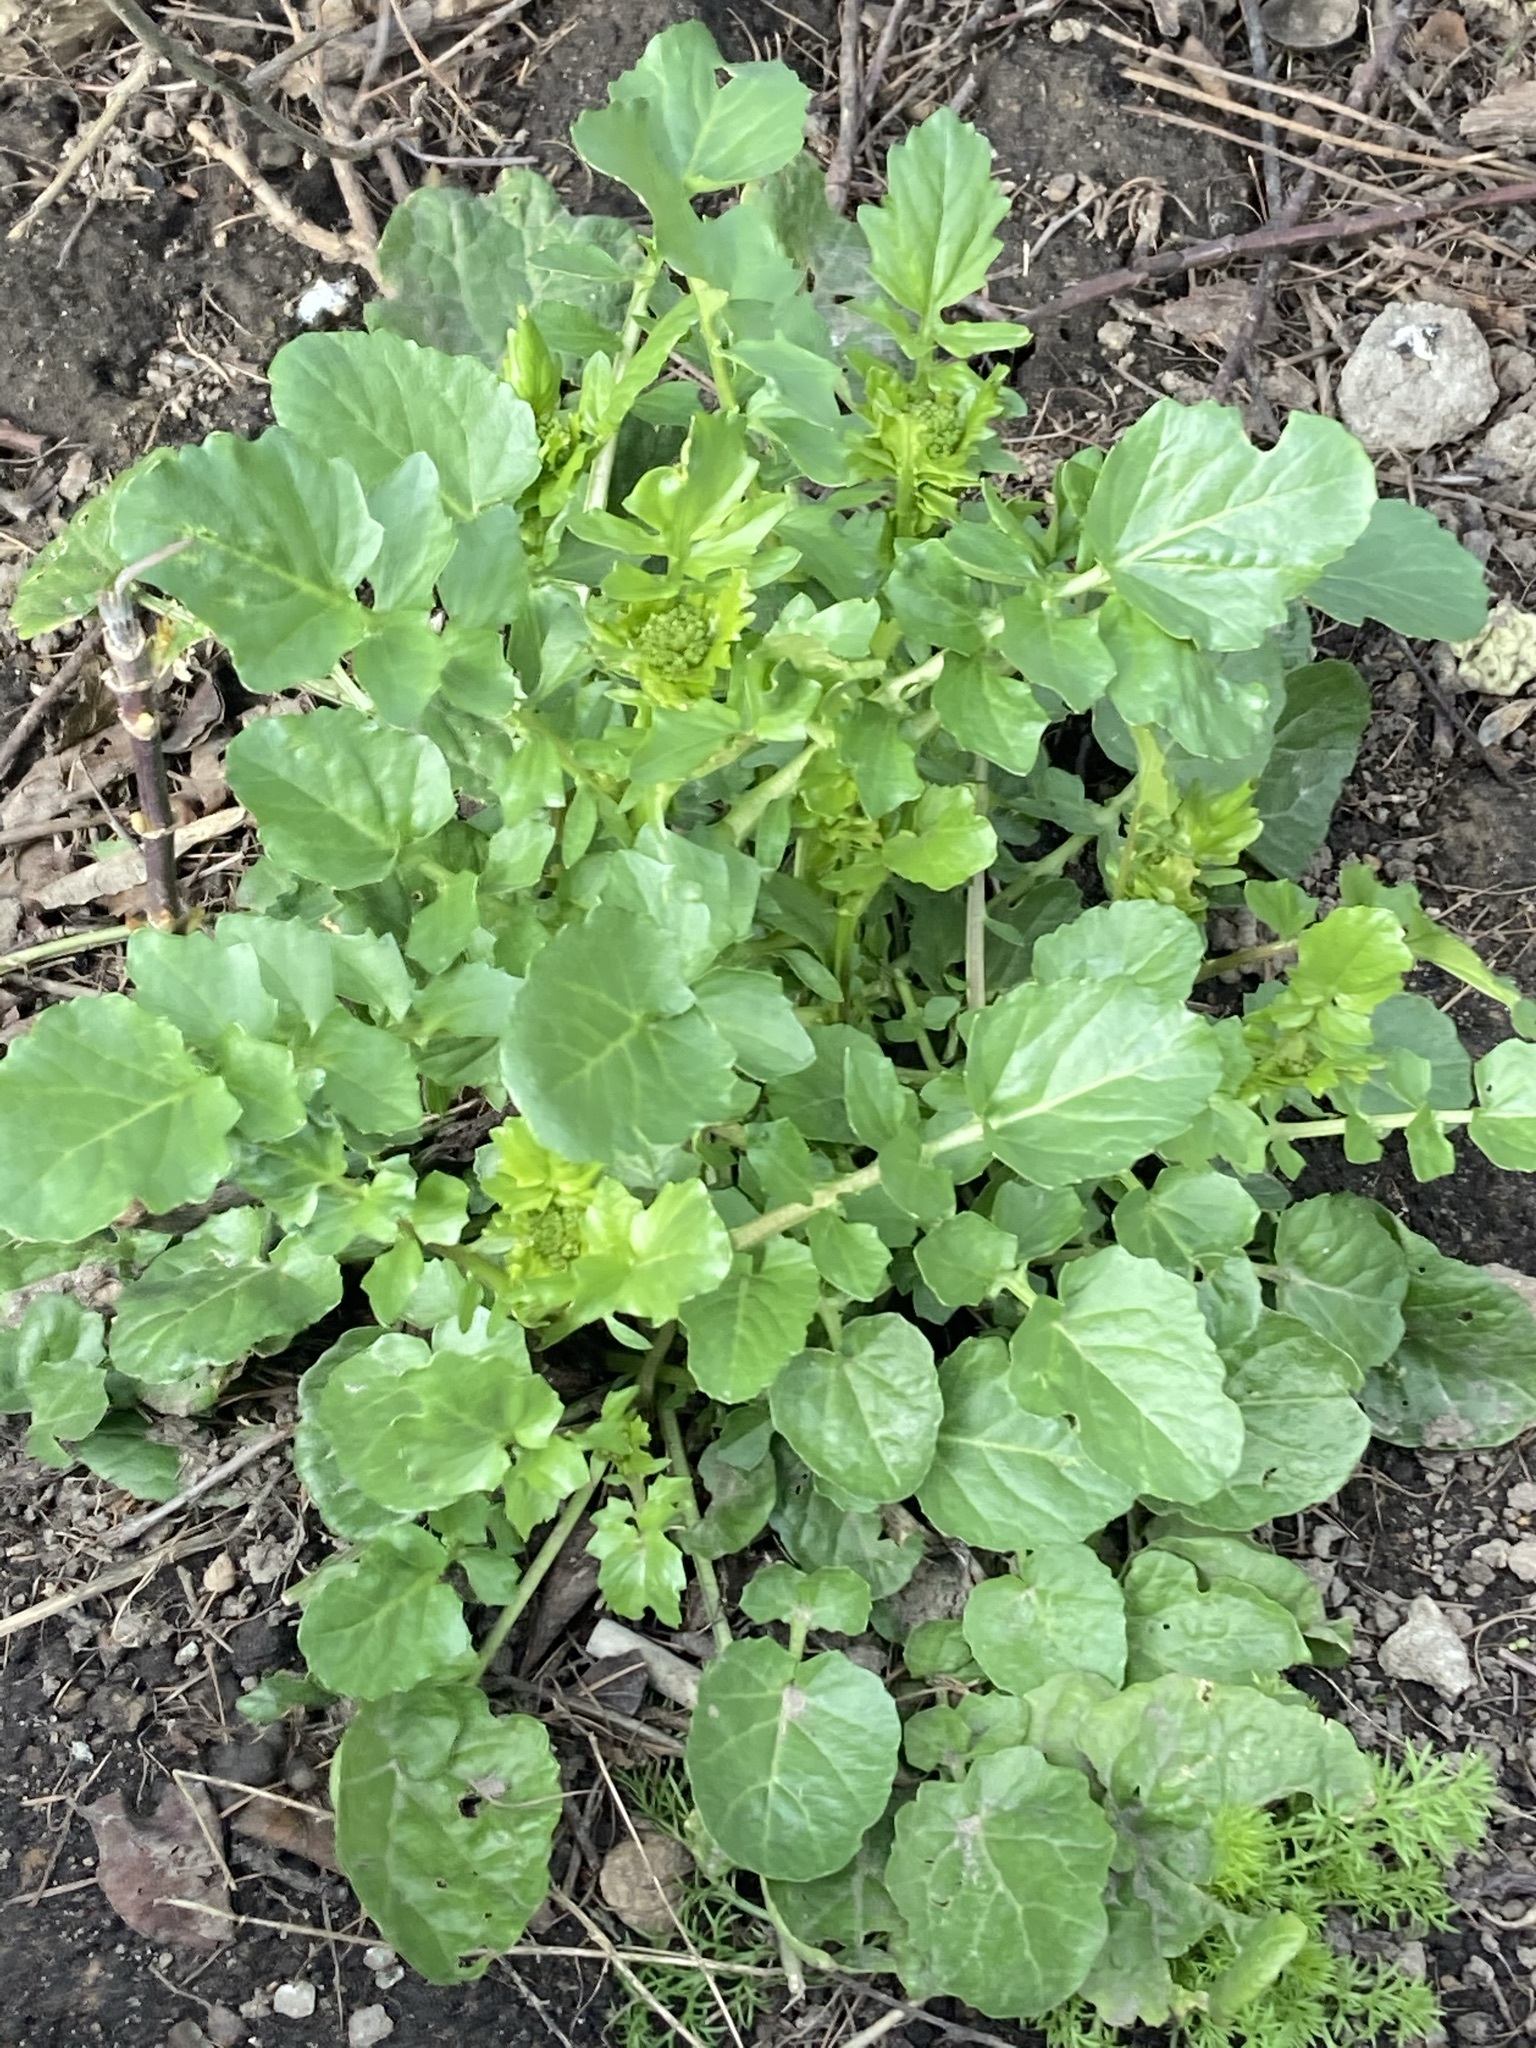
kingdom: Plantae
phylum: Tracheophyta
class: Magnoliopsida
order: Brassicales
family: Brassicaceae
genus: Barbarea
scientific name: Barbarea vulgaris
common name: Cressy-greens
